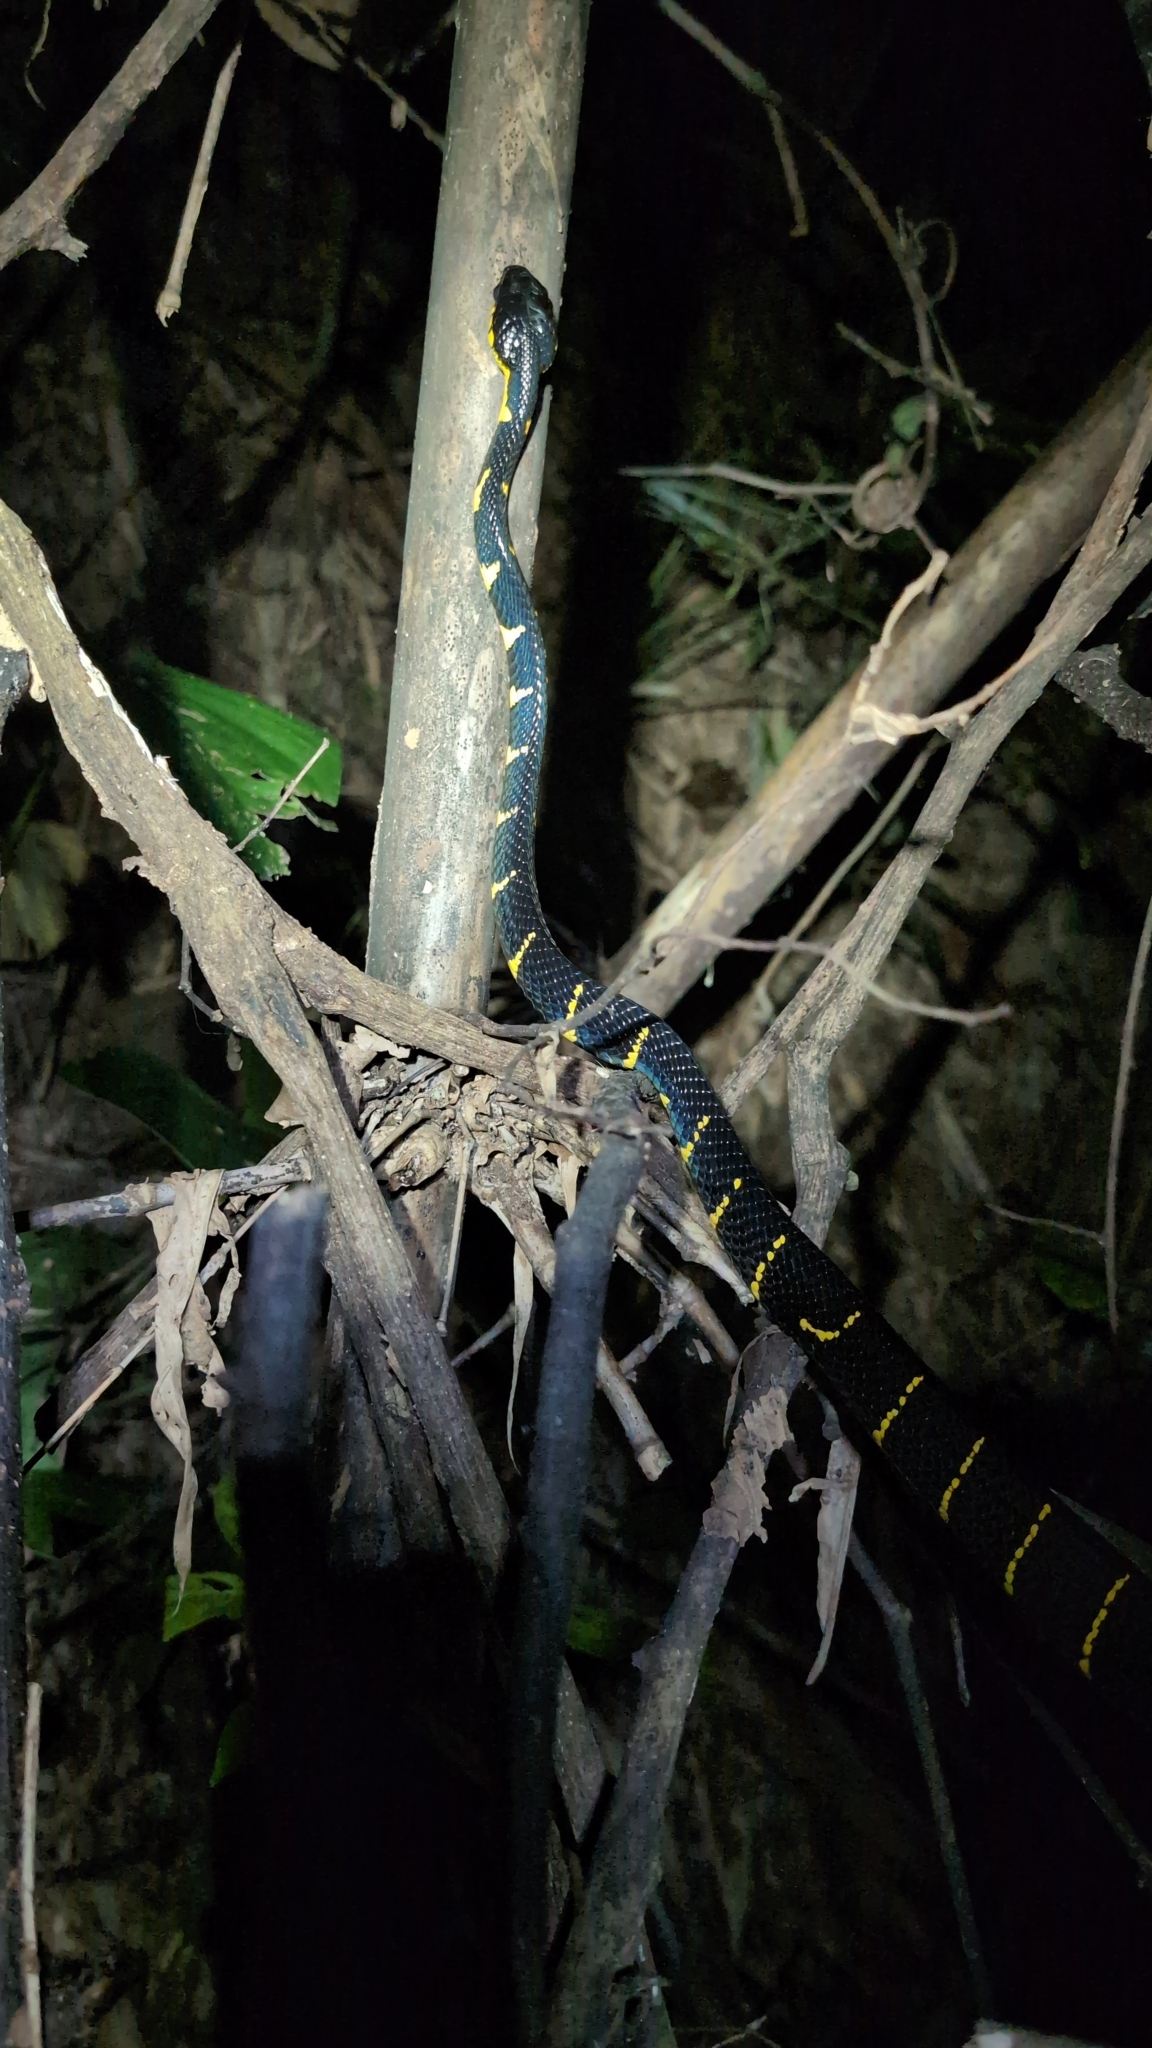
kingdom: Animalia
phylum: Chordata
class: Squamata
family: Colubridae
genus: Boiga
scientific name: Boiga melanota
